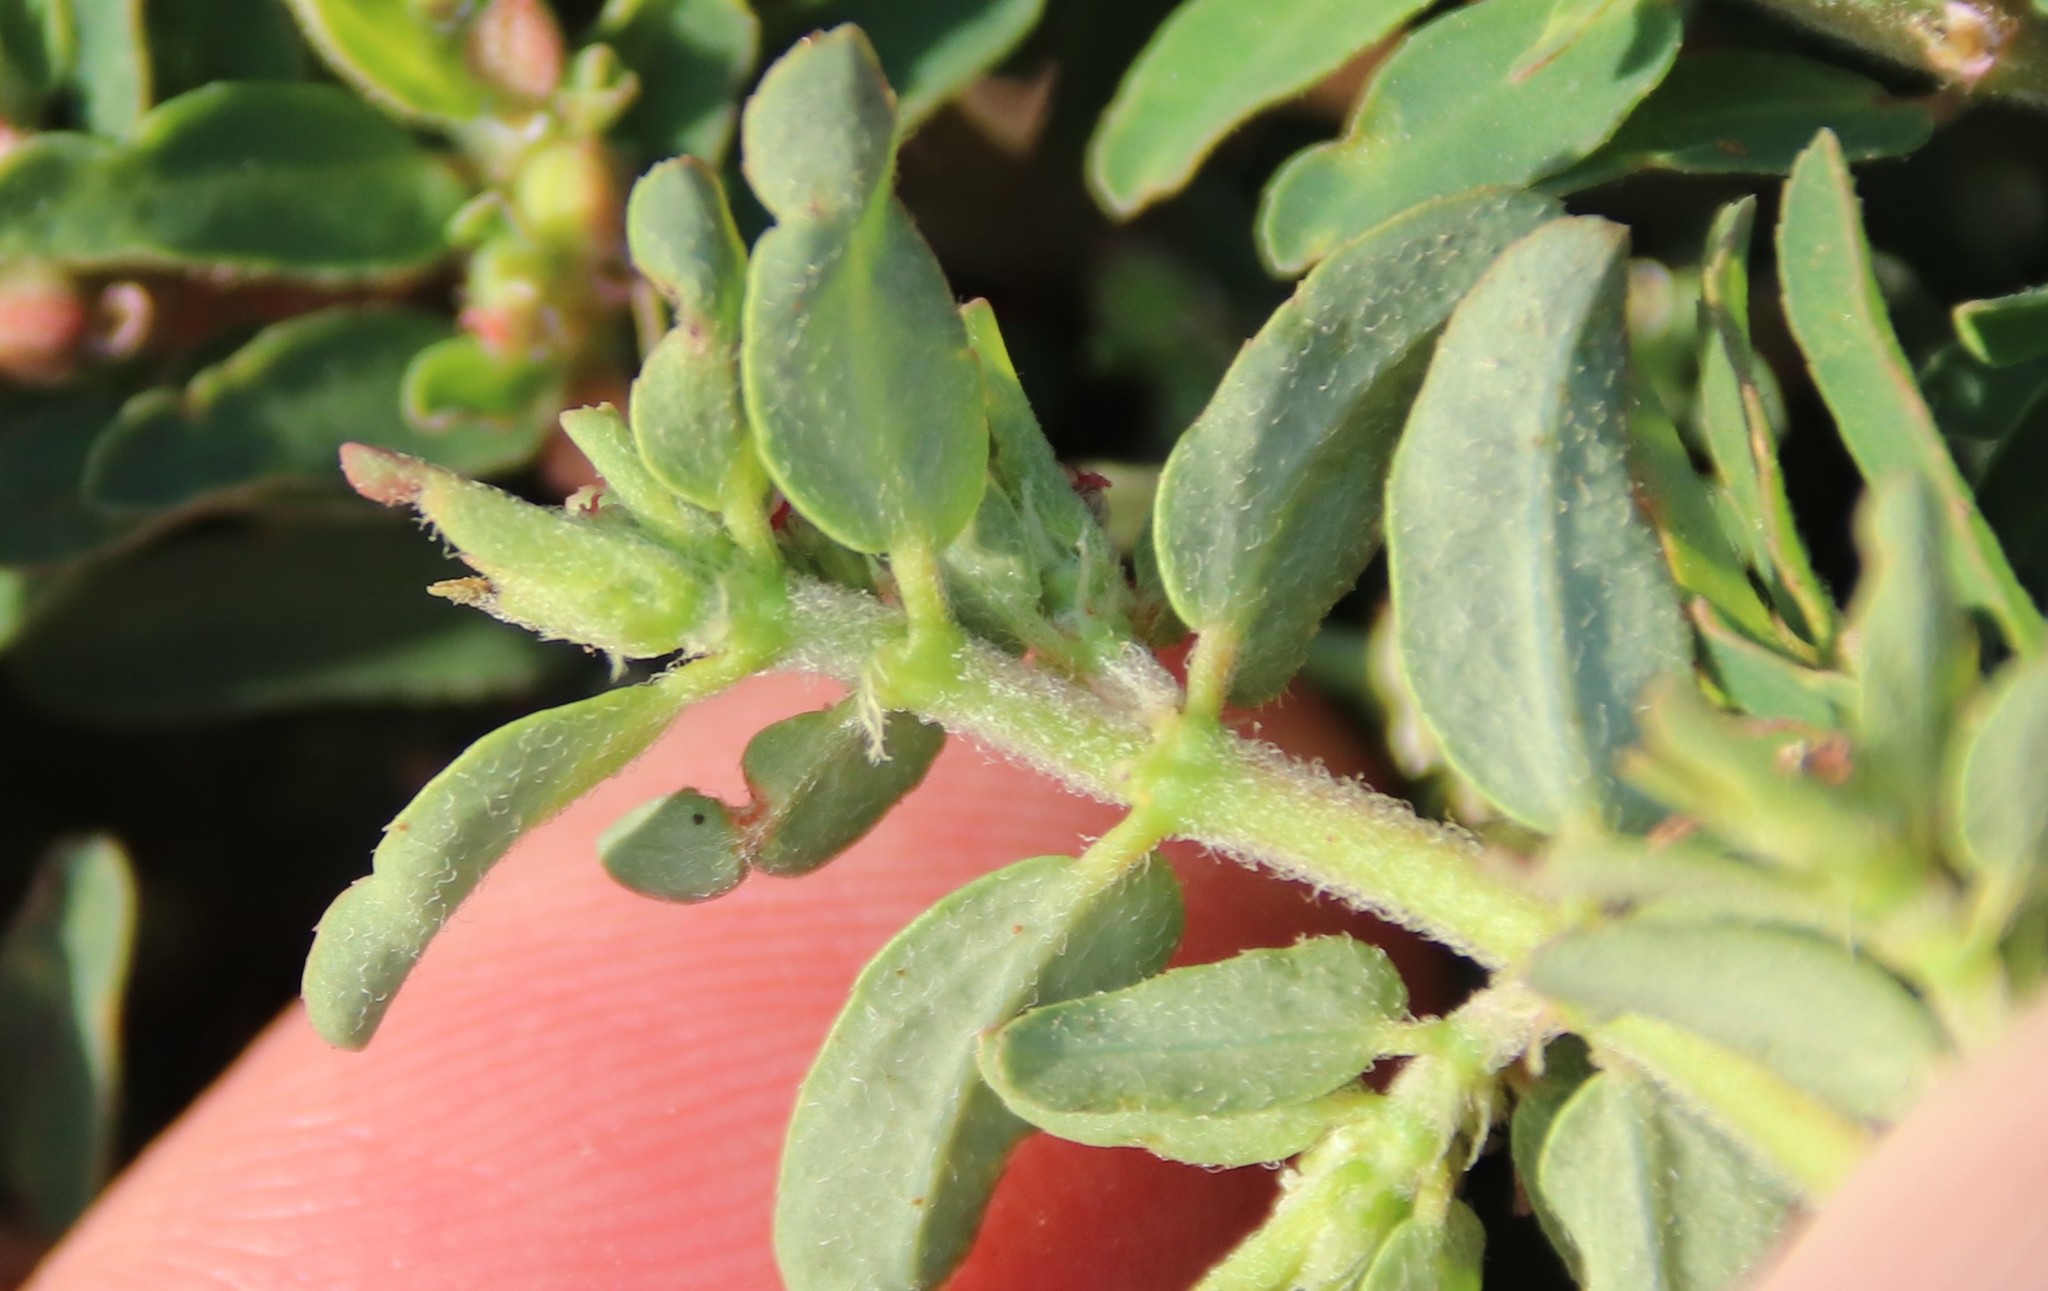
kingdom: Plantae
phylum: Tracheophyta
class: Magnoliopsida
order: Malpighiales
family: Euphorbiaceae
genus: Euphorbia
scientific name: Euphorbia maculata
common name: Spotted spurge
